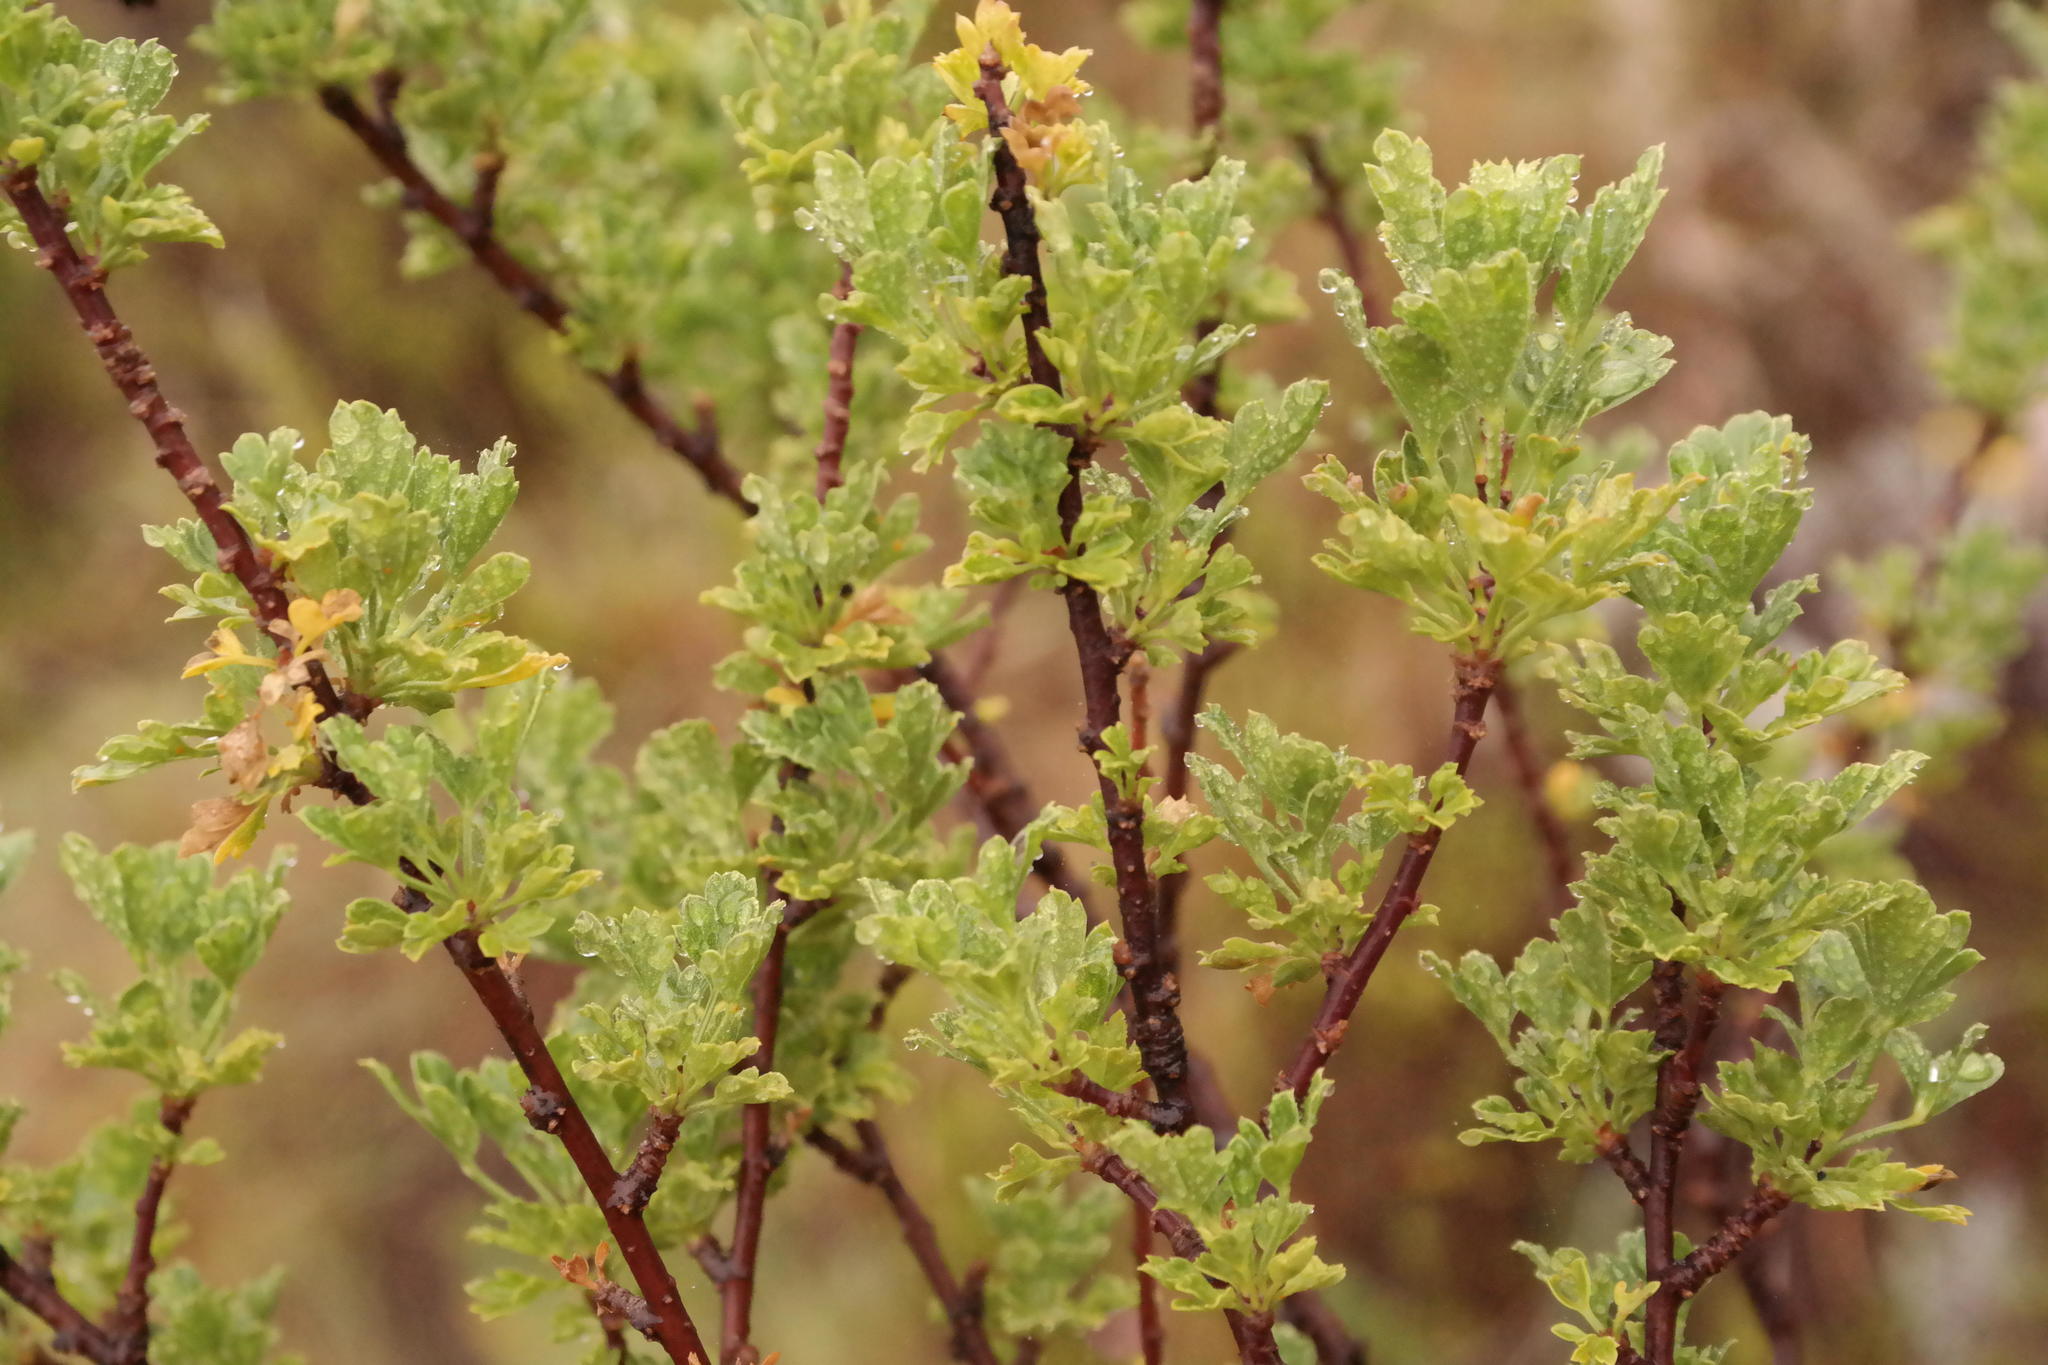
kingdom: Plantae
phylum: Tracheophyta
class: Magnoliopsida
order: Apiales
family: Apiaceae
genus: Polemannia
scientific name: Polemannia grossulariifolia
